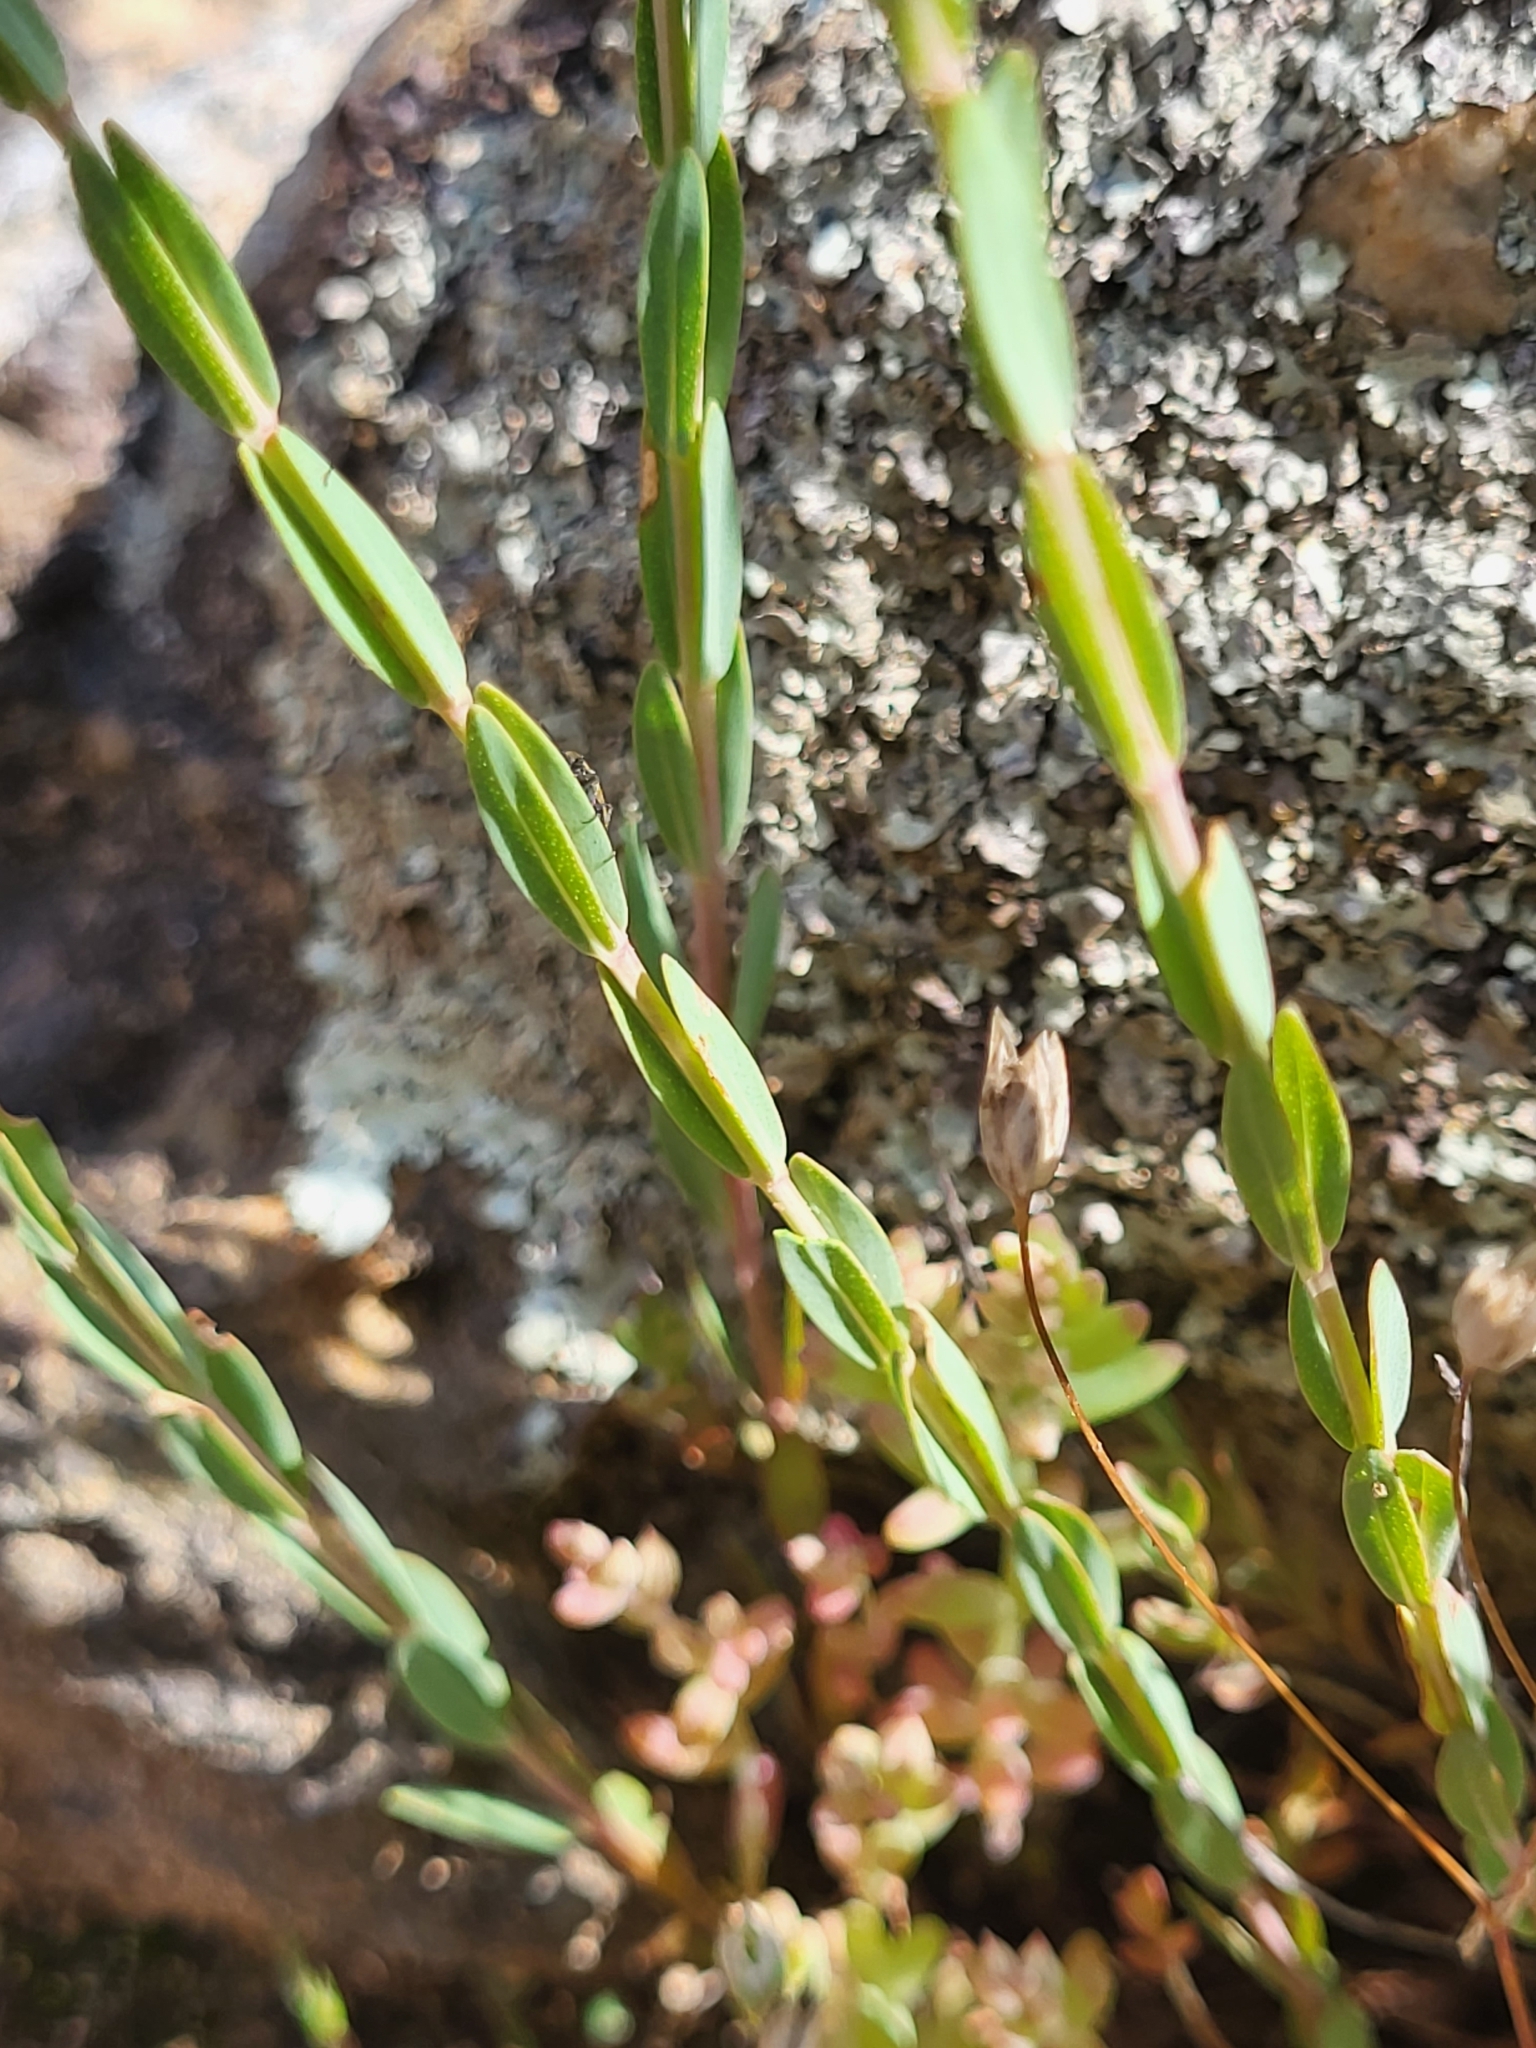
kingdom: Plantae
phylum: Tracheophyta
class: Magnoliopsida
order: Malpighiales
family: Hypericaceae
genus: Hypericum
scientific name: Hypericum olympicum
